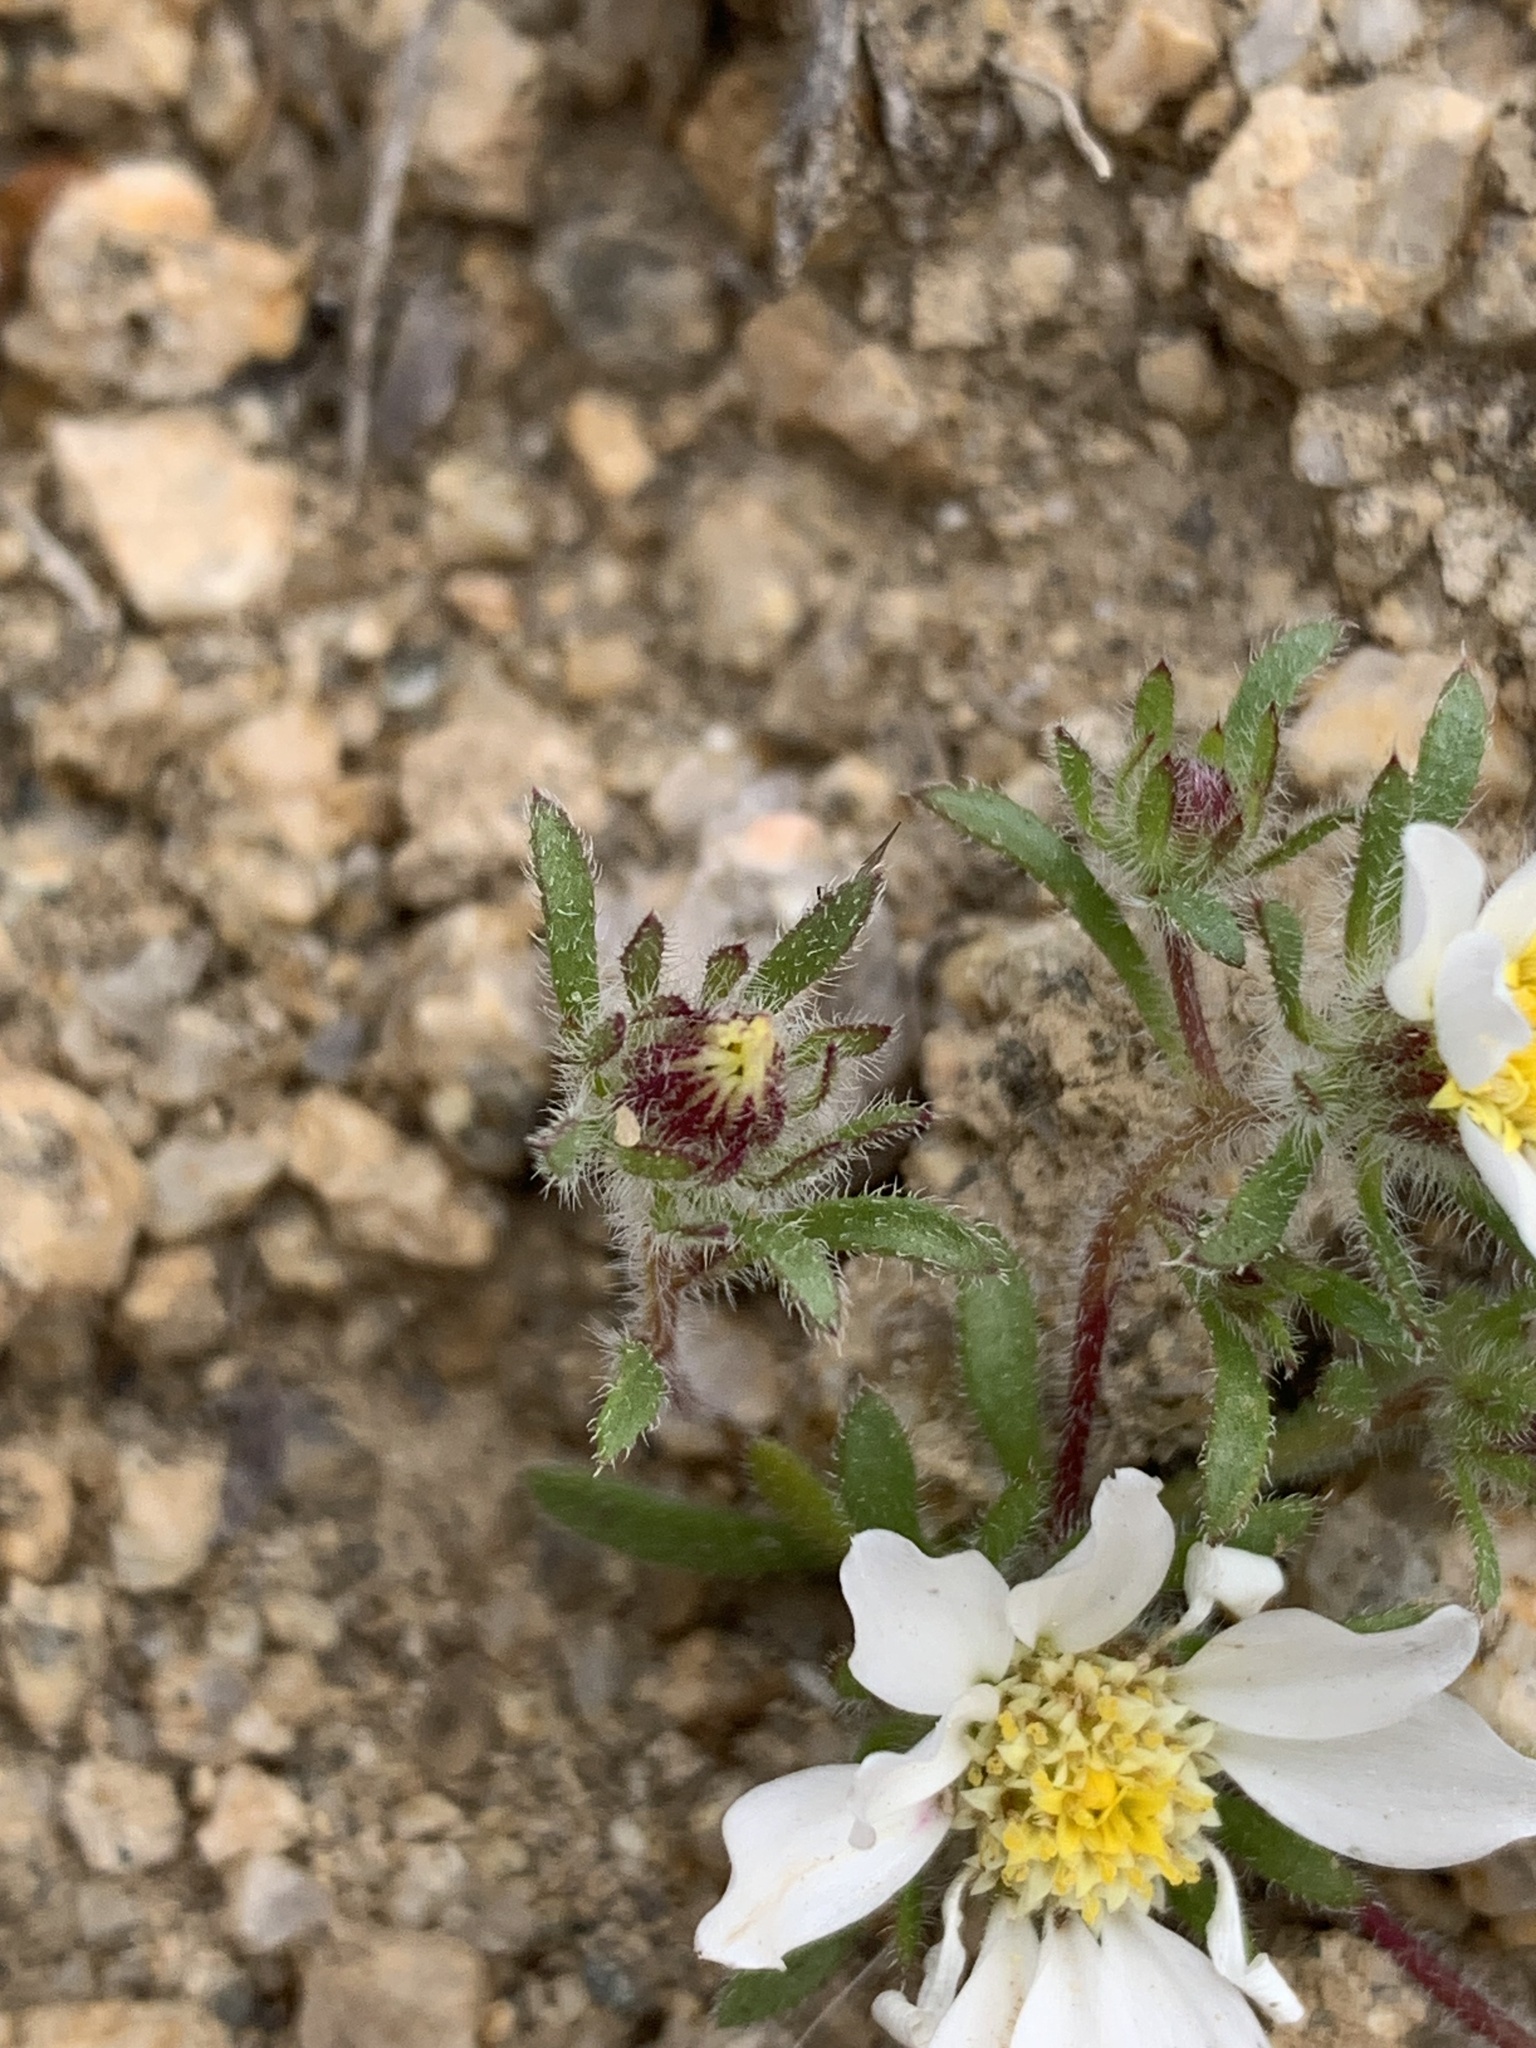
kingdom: Plantae
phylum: Tracheophyta
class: Magnoliopsida
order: Asterales
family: Asteraceae
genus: Monoptilon
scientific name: Monoptilon bellioides
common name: Bristly desertstar
